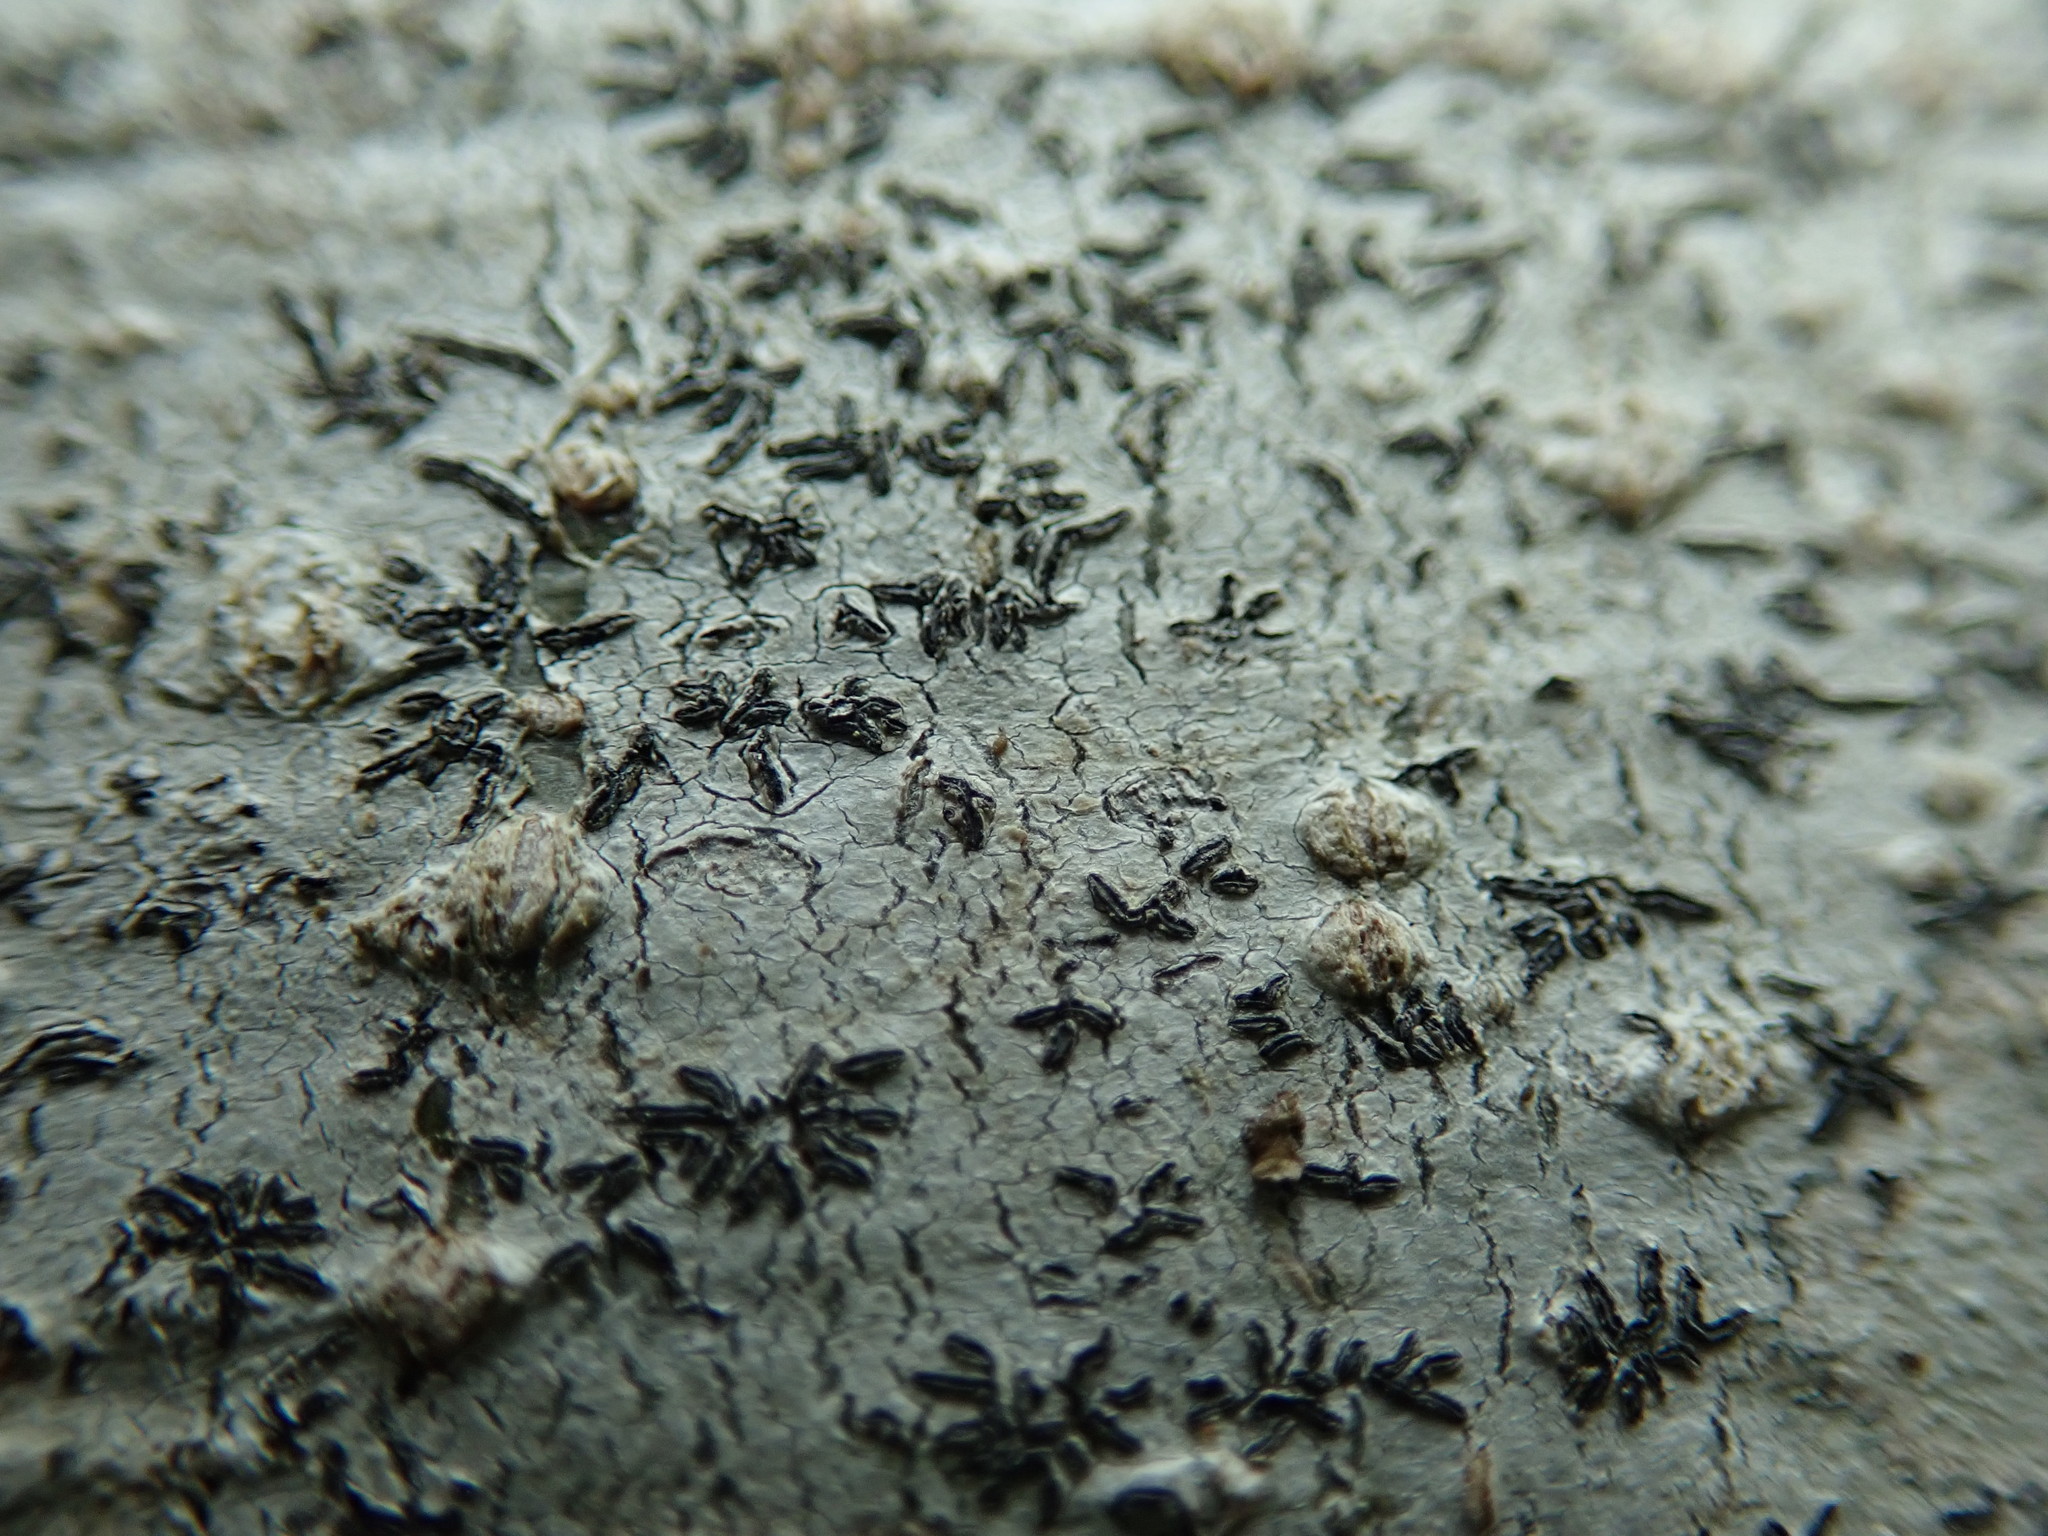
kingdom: Fungi
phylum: Ascomycota
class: Lecanoromycetes
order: Ostropales
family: Graphidaceae
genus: Graphis
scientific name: Graphis scripta
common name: Script lichen
